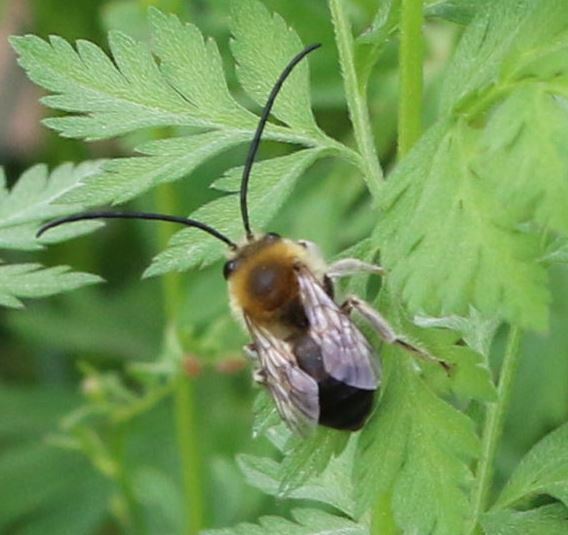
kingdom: Animalia
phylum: Arthropoda
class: Insecta
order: Hymenoptera
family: Apidae
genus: Eucera
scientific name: Eucera nigrescens
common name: Tuberculate long-horned bee
